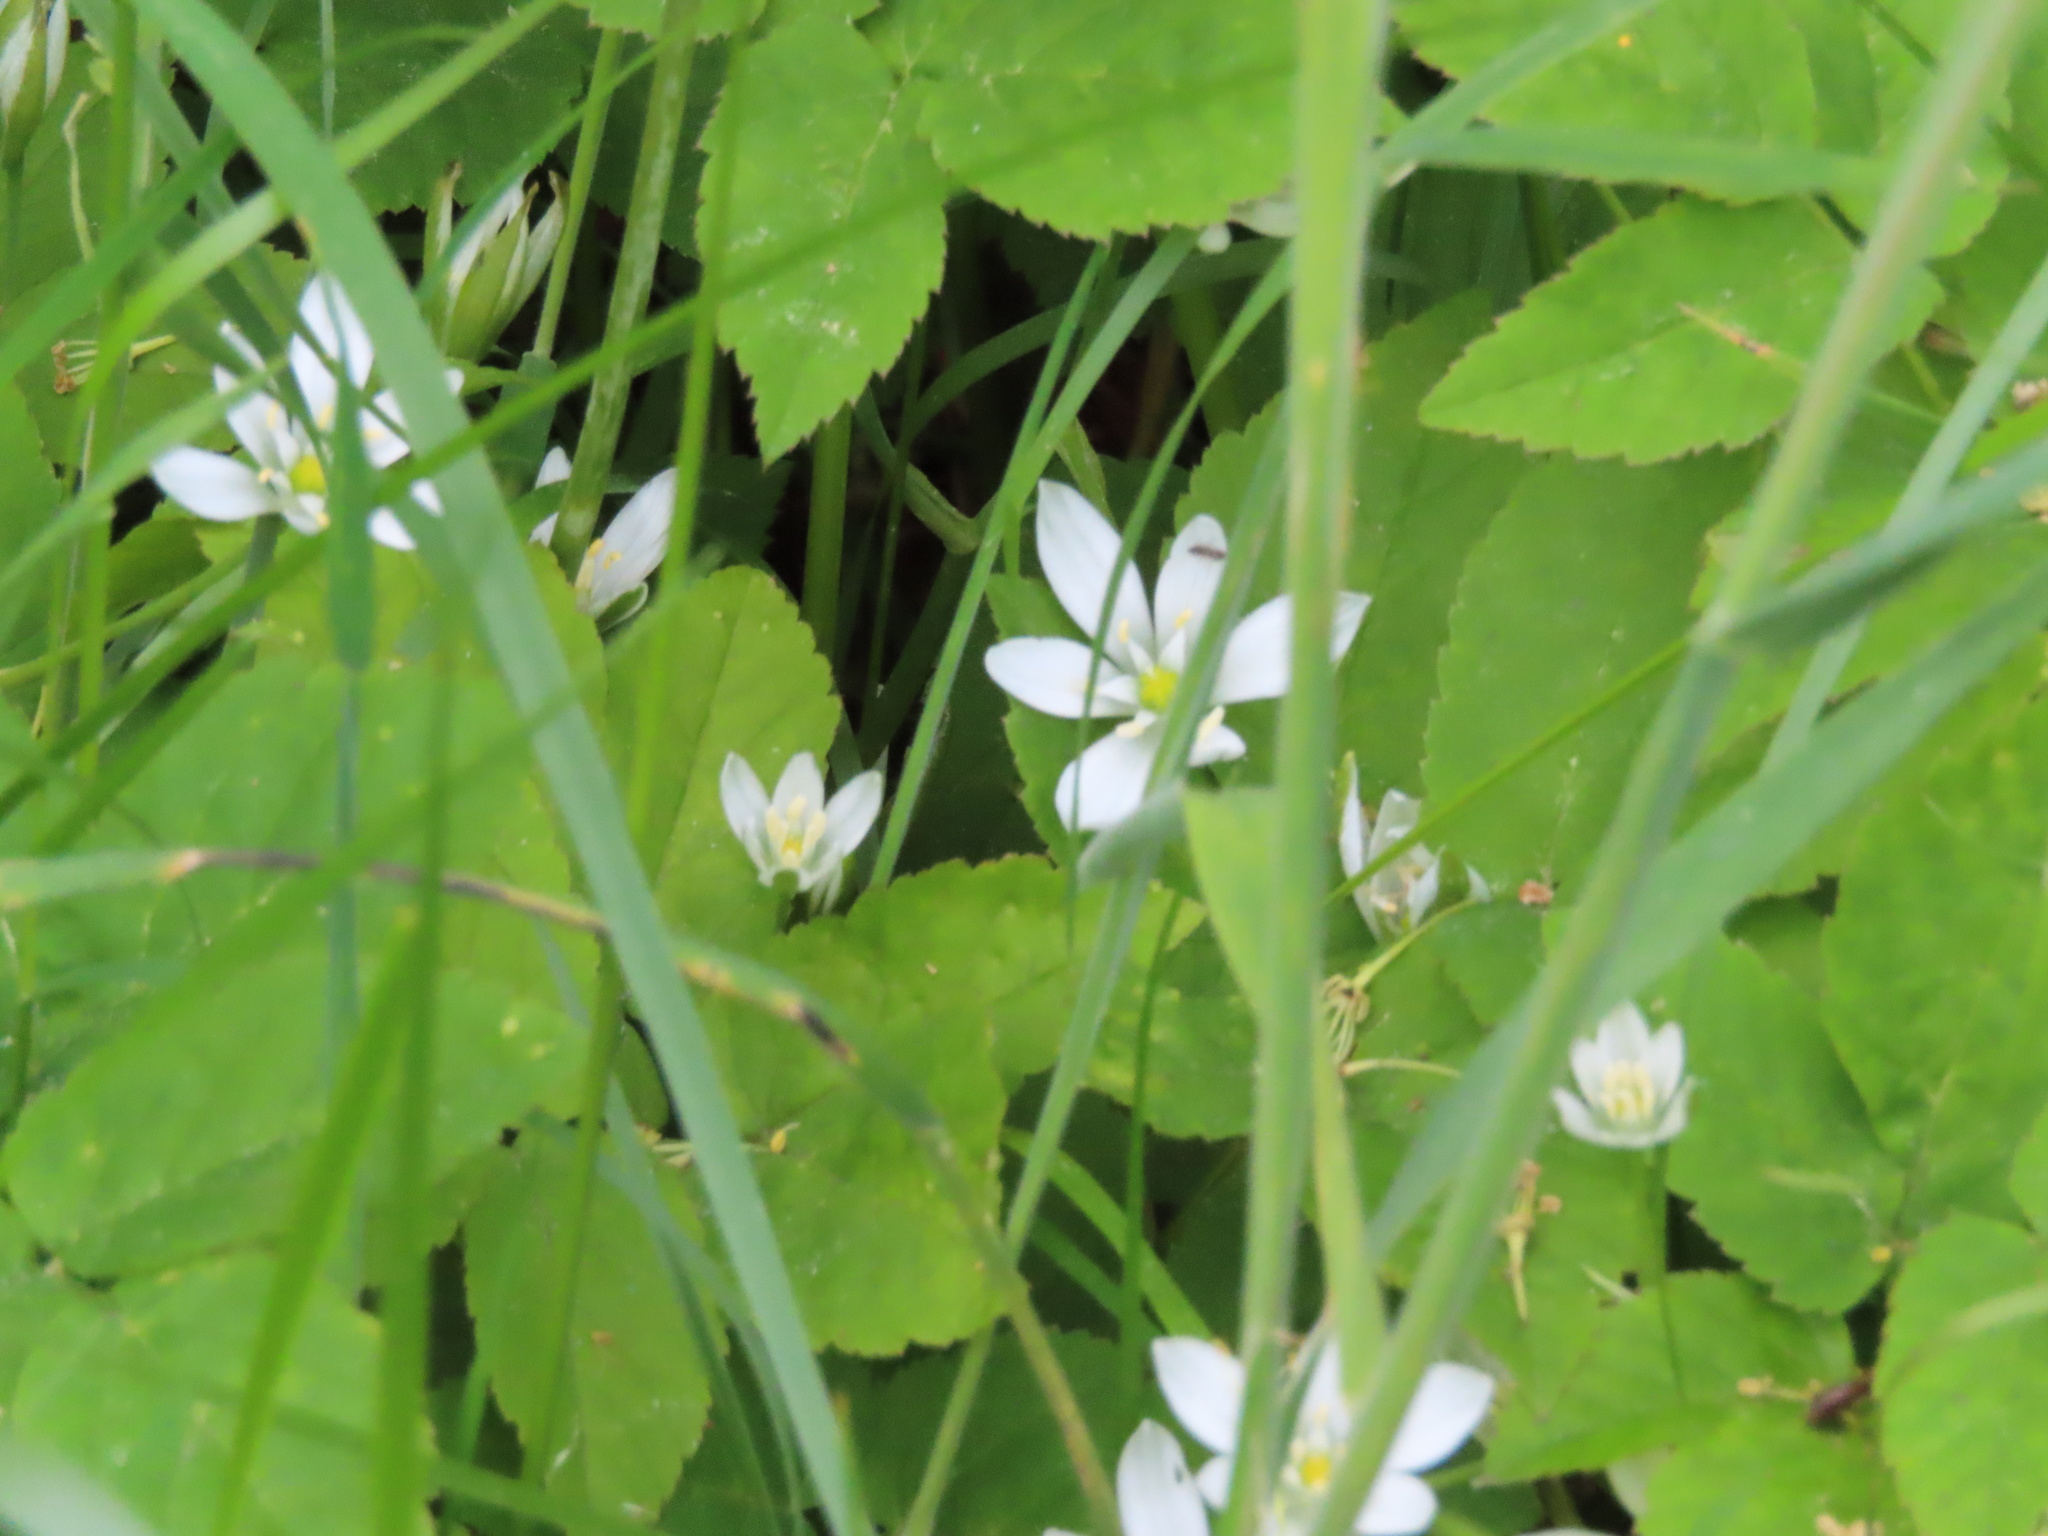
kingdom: Plantae
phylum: Tracheophyta
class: Liliopsida
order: Asparagales
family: Asparagaceae
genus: Ornithogalum
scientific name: Ornithogalum umbellatum
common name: Garden star-of-bethlehem
